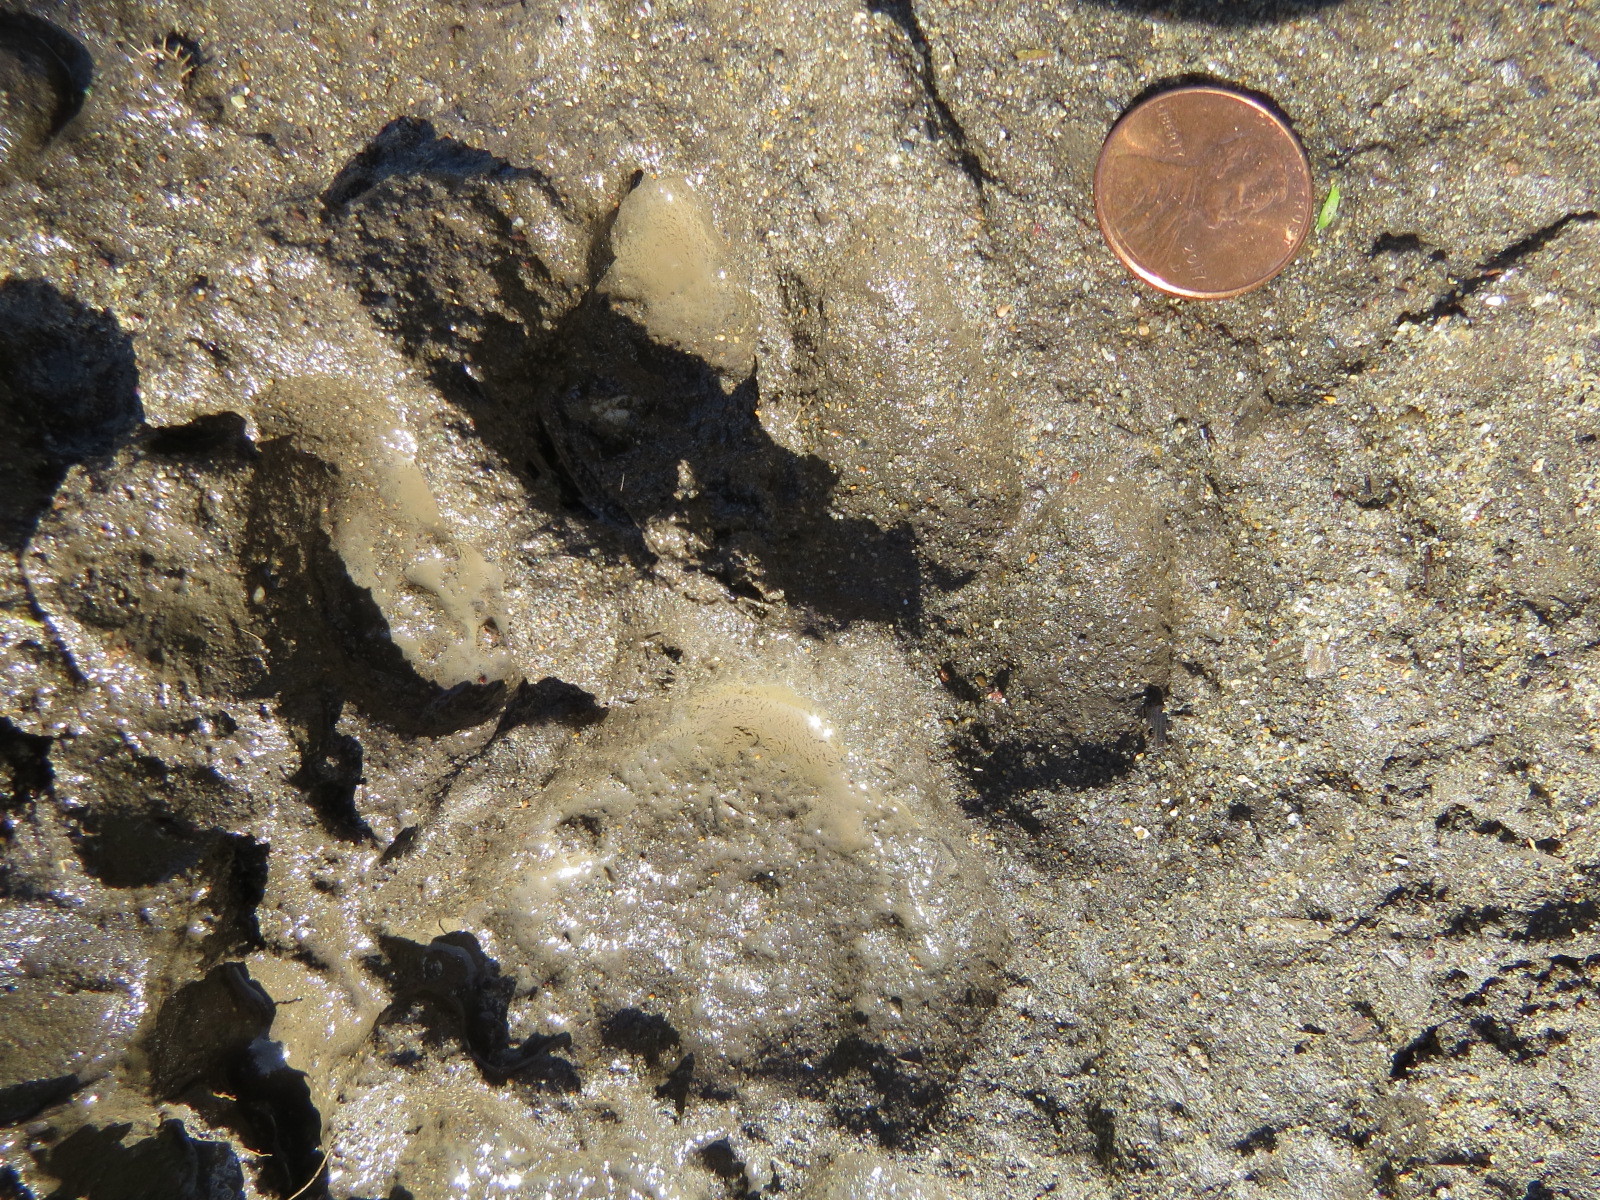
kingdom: Animalia
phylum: Chordata
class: Mammalia
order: Carnivora
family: Felidae
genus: Puma
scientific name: Puma concolor
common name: Puma
